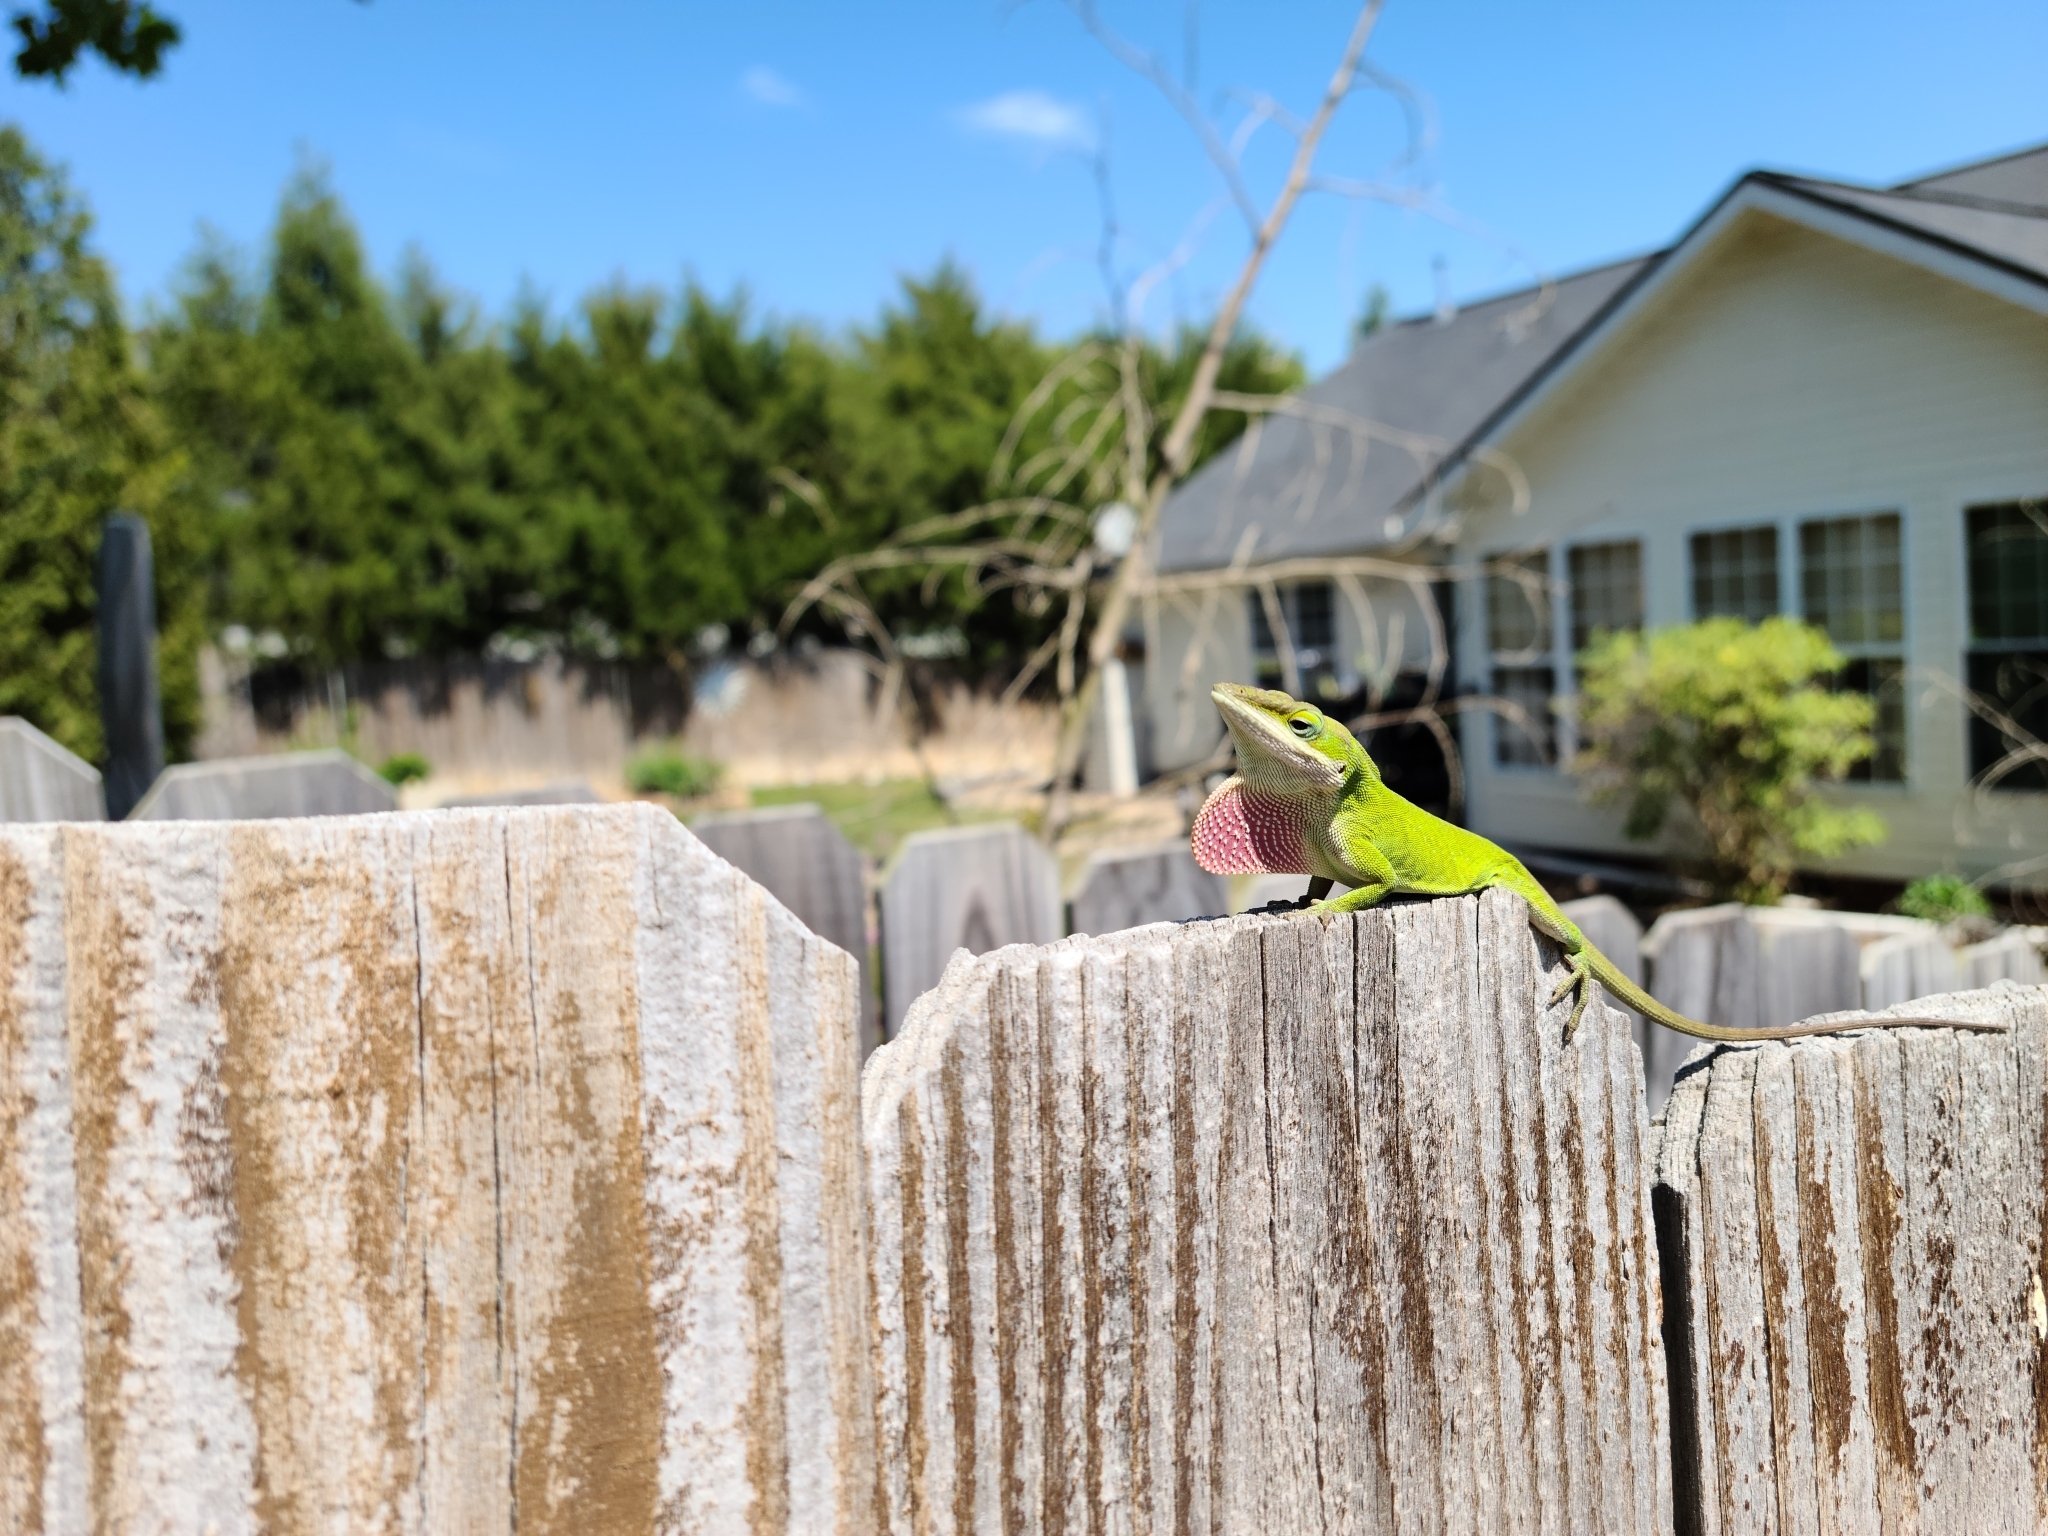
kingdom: Animalia
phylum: Chordata
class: Squamata
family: Dactyloidae
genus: Anolis
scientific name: Anolis carolinensis
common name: Green anole
